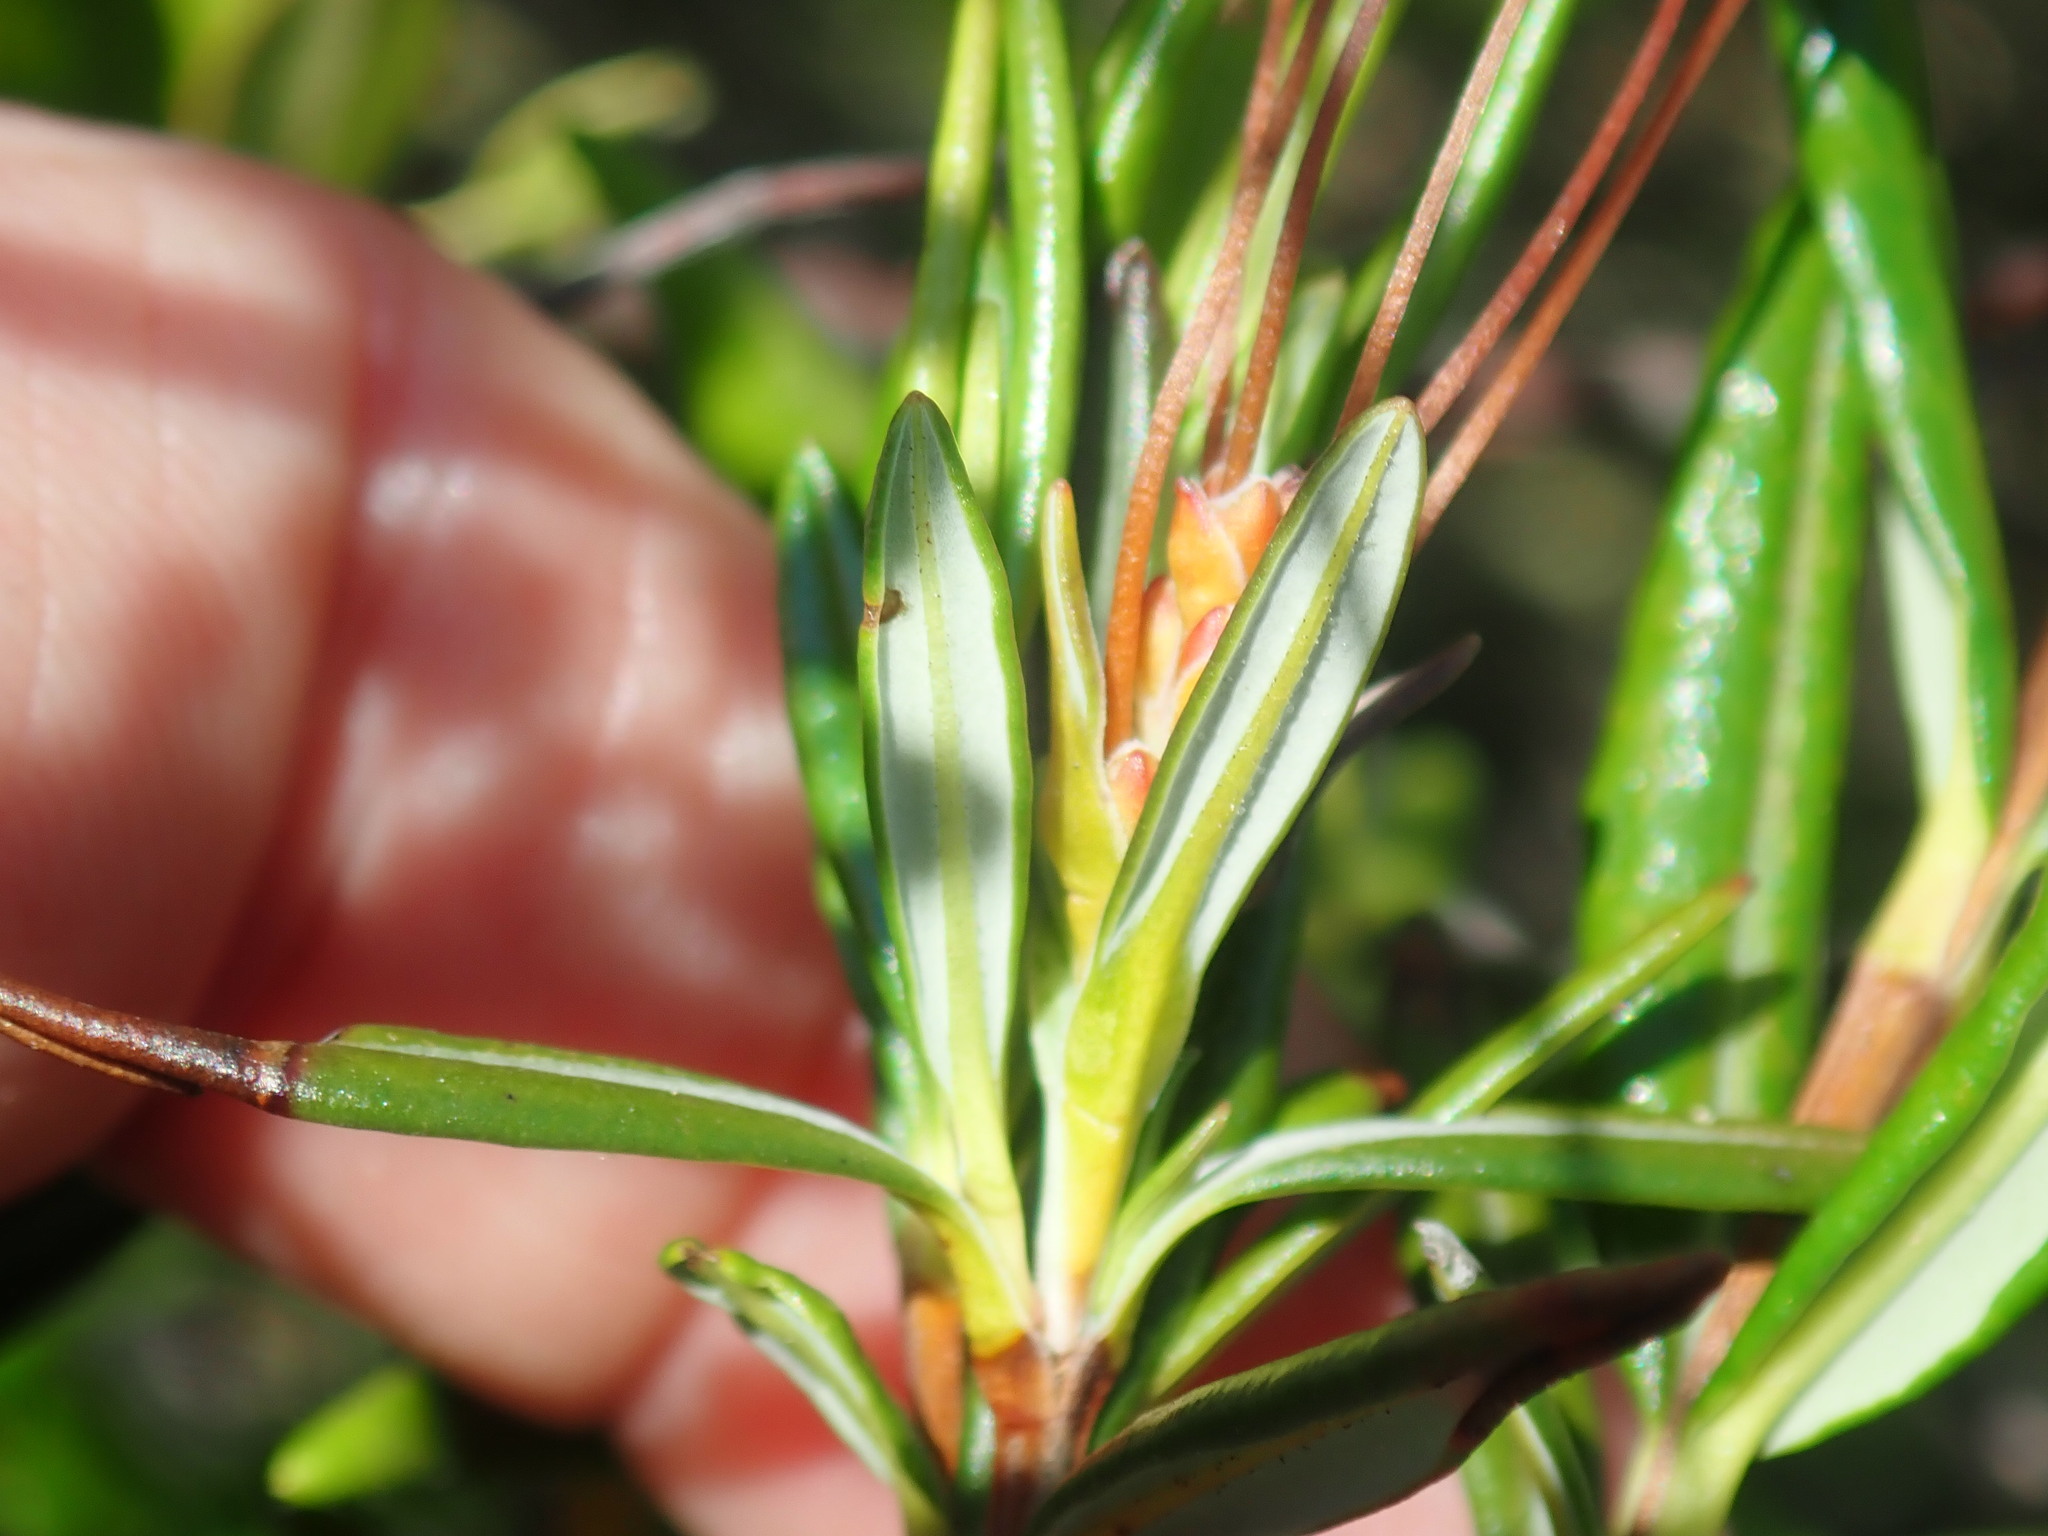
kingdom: Plantae
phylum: Tracheophyta
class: Magnoliopsida
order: Ericales
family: Ericaceae
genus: Kalmia
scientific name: Kalmia polifolia
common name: Bog-laurel
